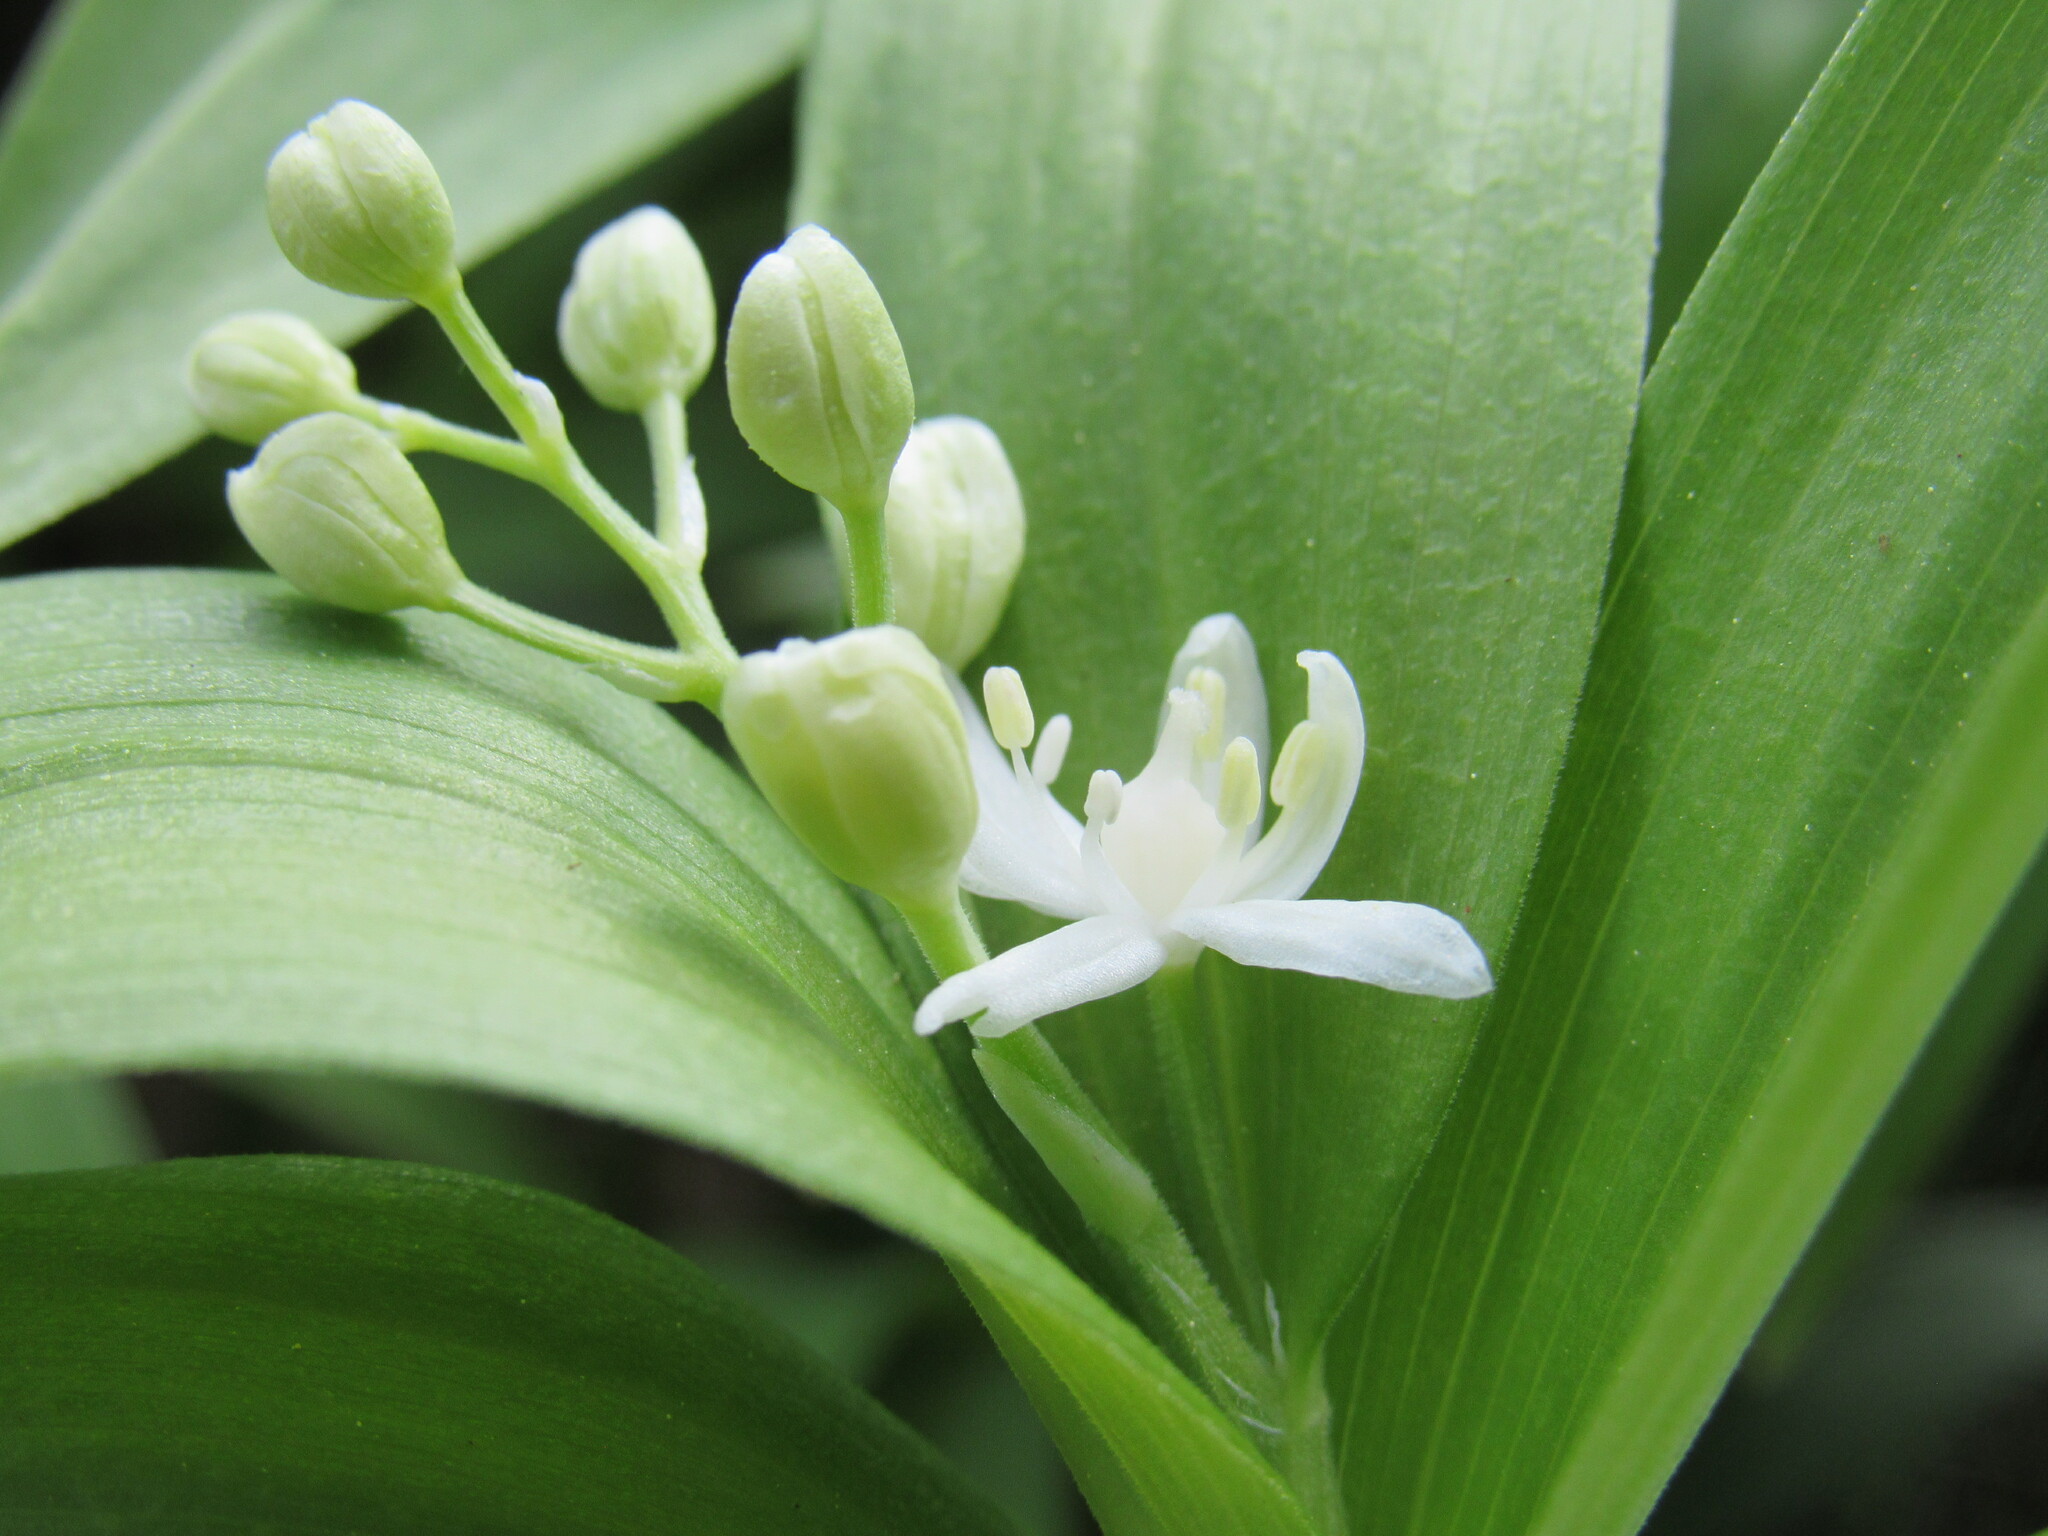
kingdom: Plantae
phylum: Tracheophyta
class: Liliopsida
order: Asparagales
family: Asparagaceae
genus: Maianthemum
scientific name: Maianthemum stellatum
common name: Little false solomon's seal
